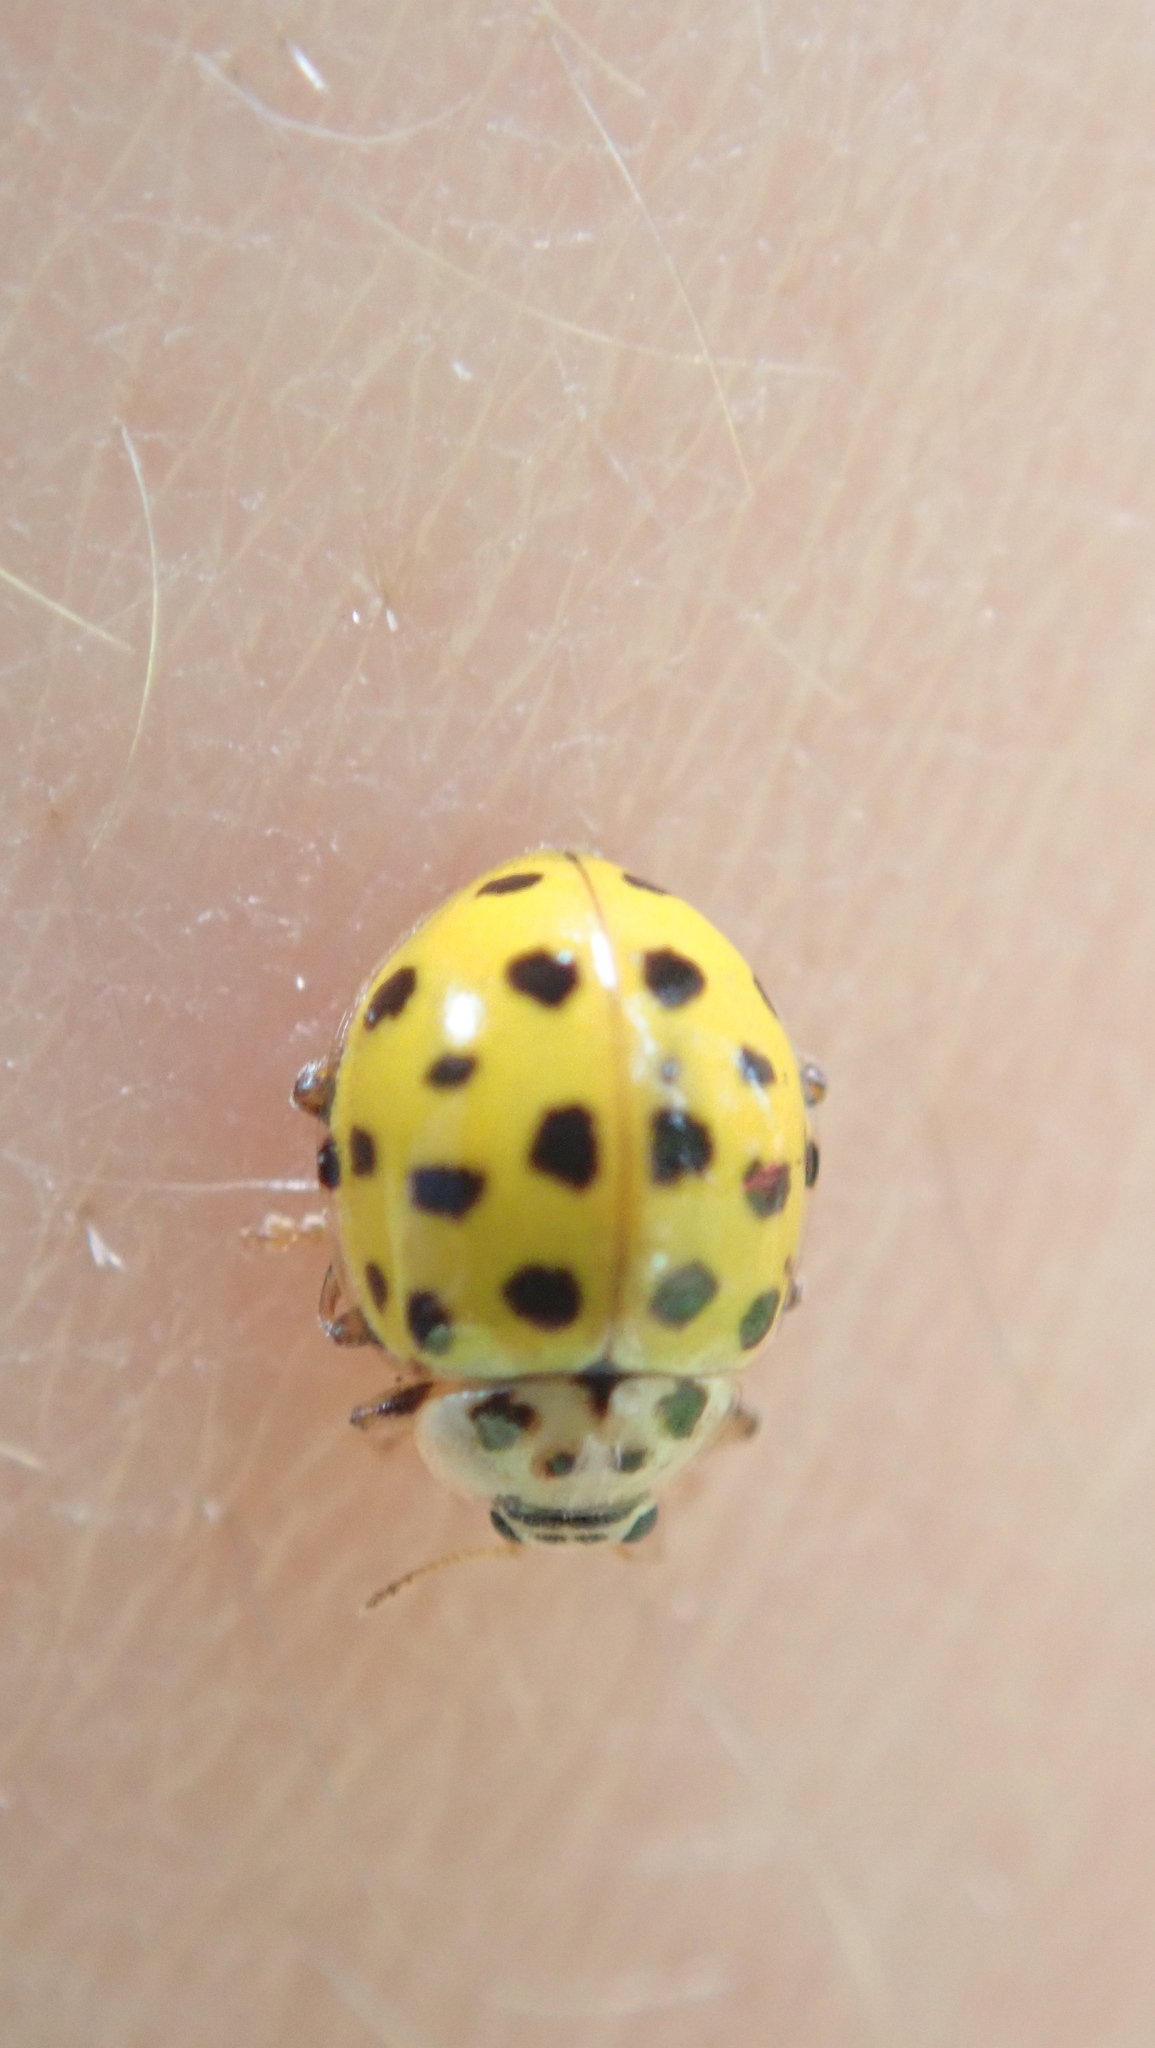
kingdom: Animalia
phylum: Arthropoda
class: Insecta
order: Coleoptera
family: Coccinellidae
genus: Psyllobora
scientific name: Psyllobora vigintiduopunctata
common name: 22-spot ladybird
